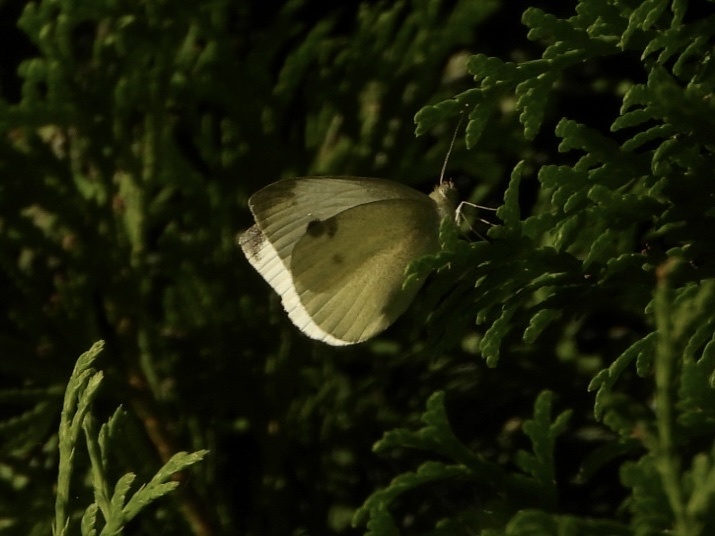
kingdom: Animalia
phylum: Arthropoda
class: Insecta
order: Lepidoptera
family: Pieridae
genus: Pieris
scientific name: Pieris rapae
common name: Small white
